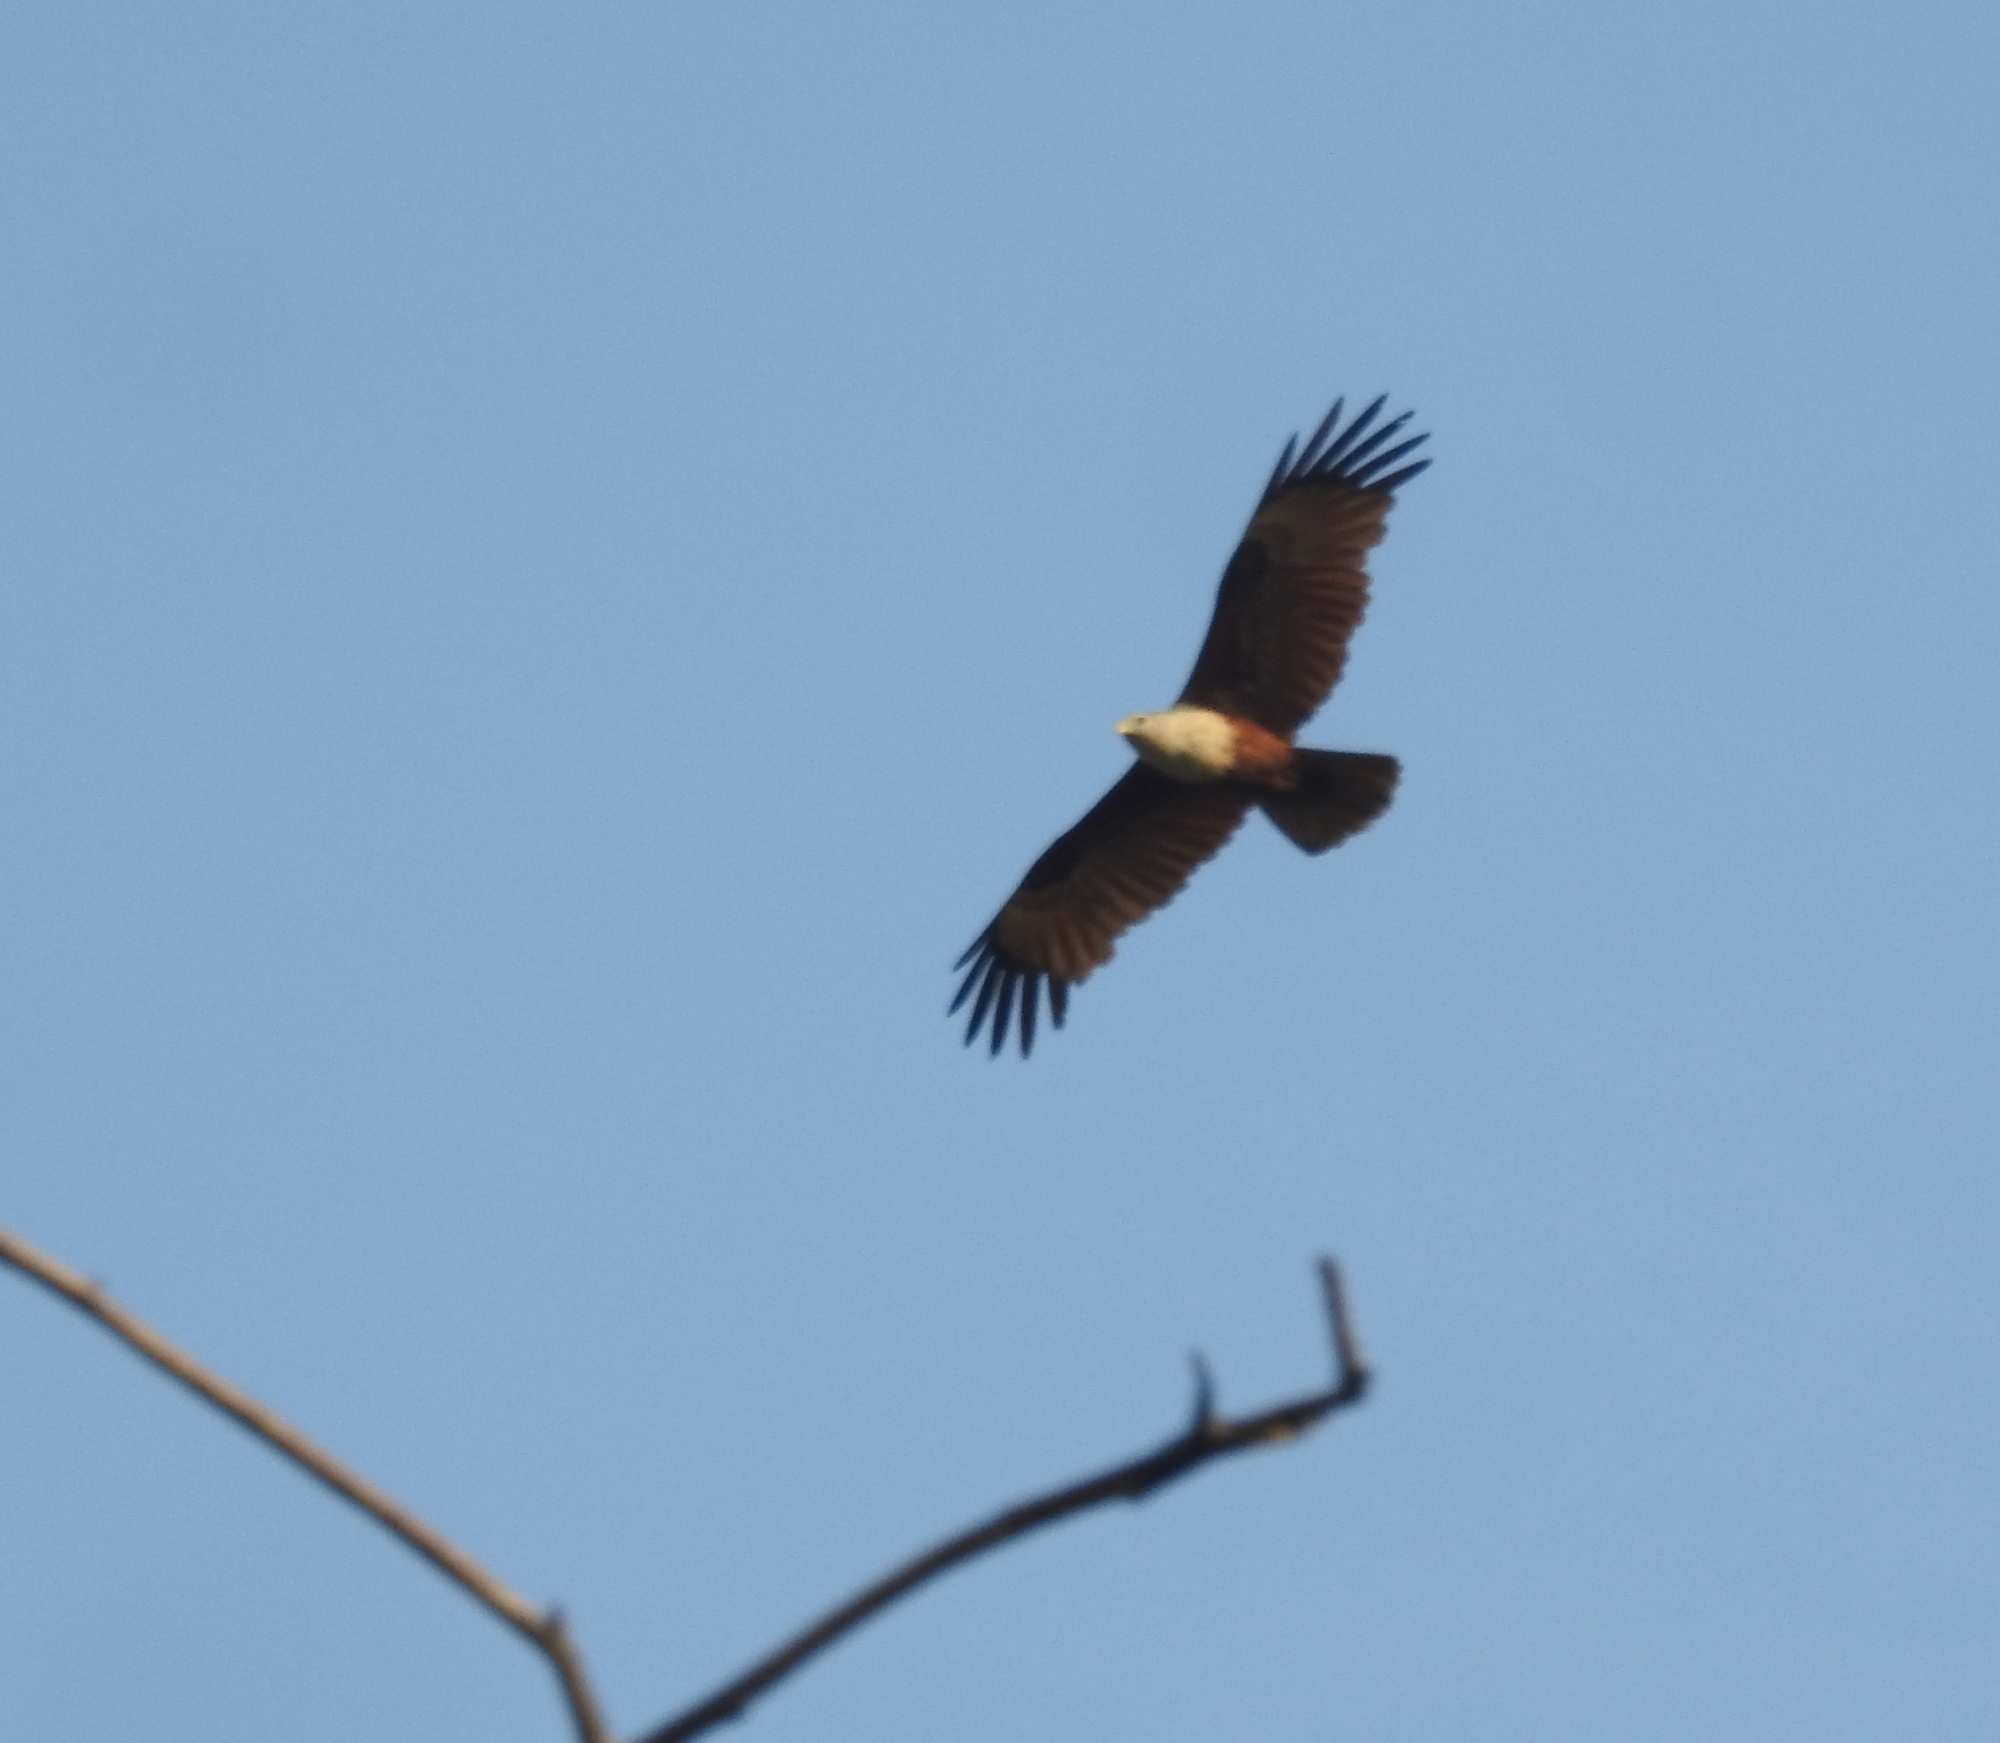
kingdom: Animalia
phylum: Chordata
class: Aves
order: Accipitriformes
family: Accipitridae
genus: Haliastur
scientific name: Haliastur indus
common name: Brahminy kite
